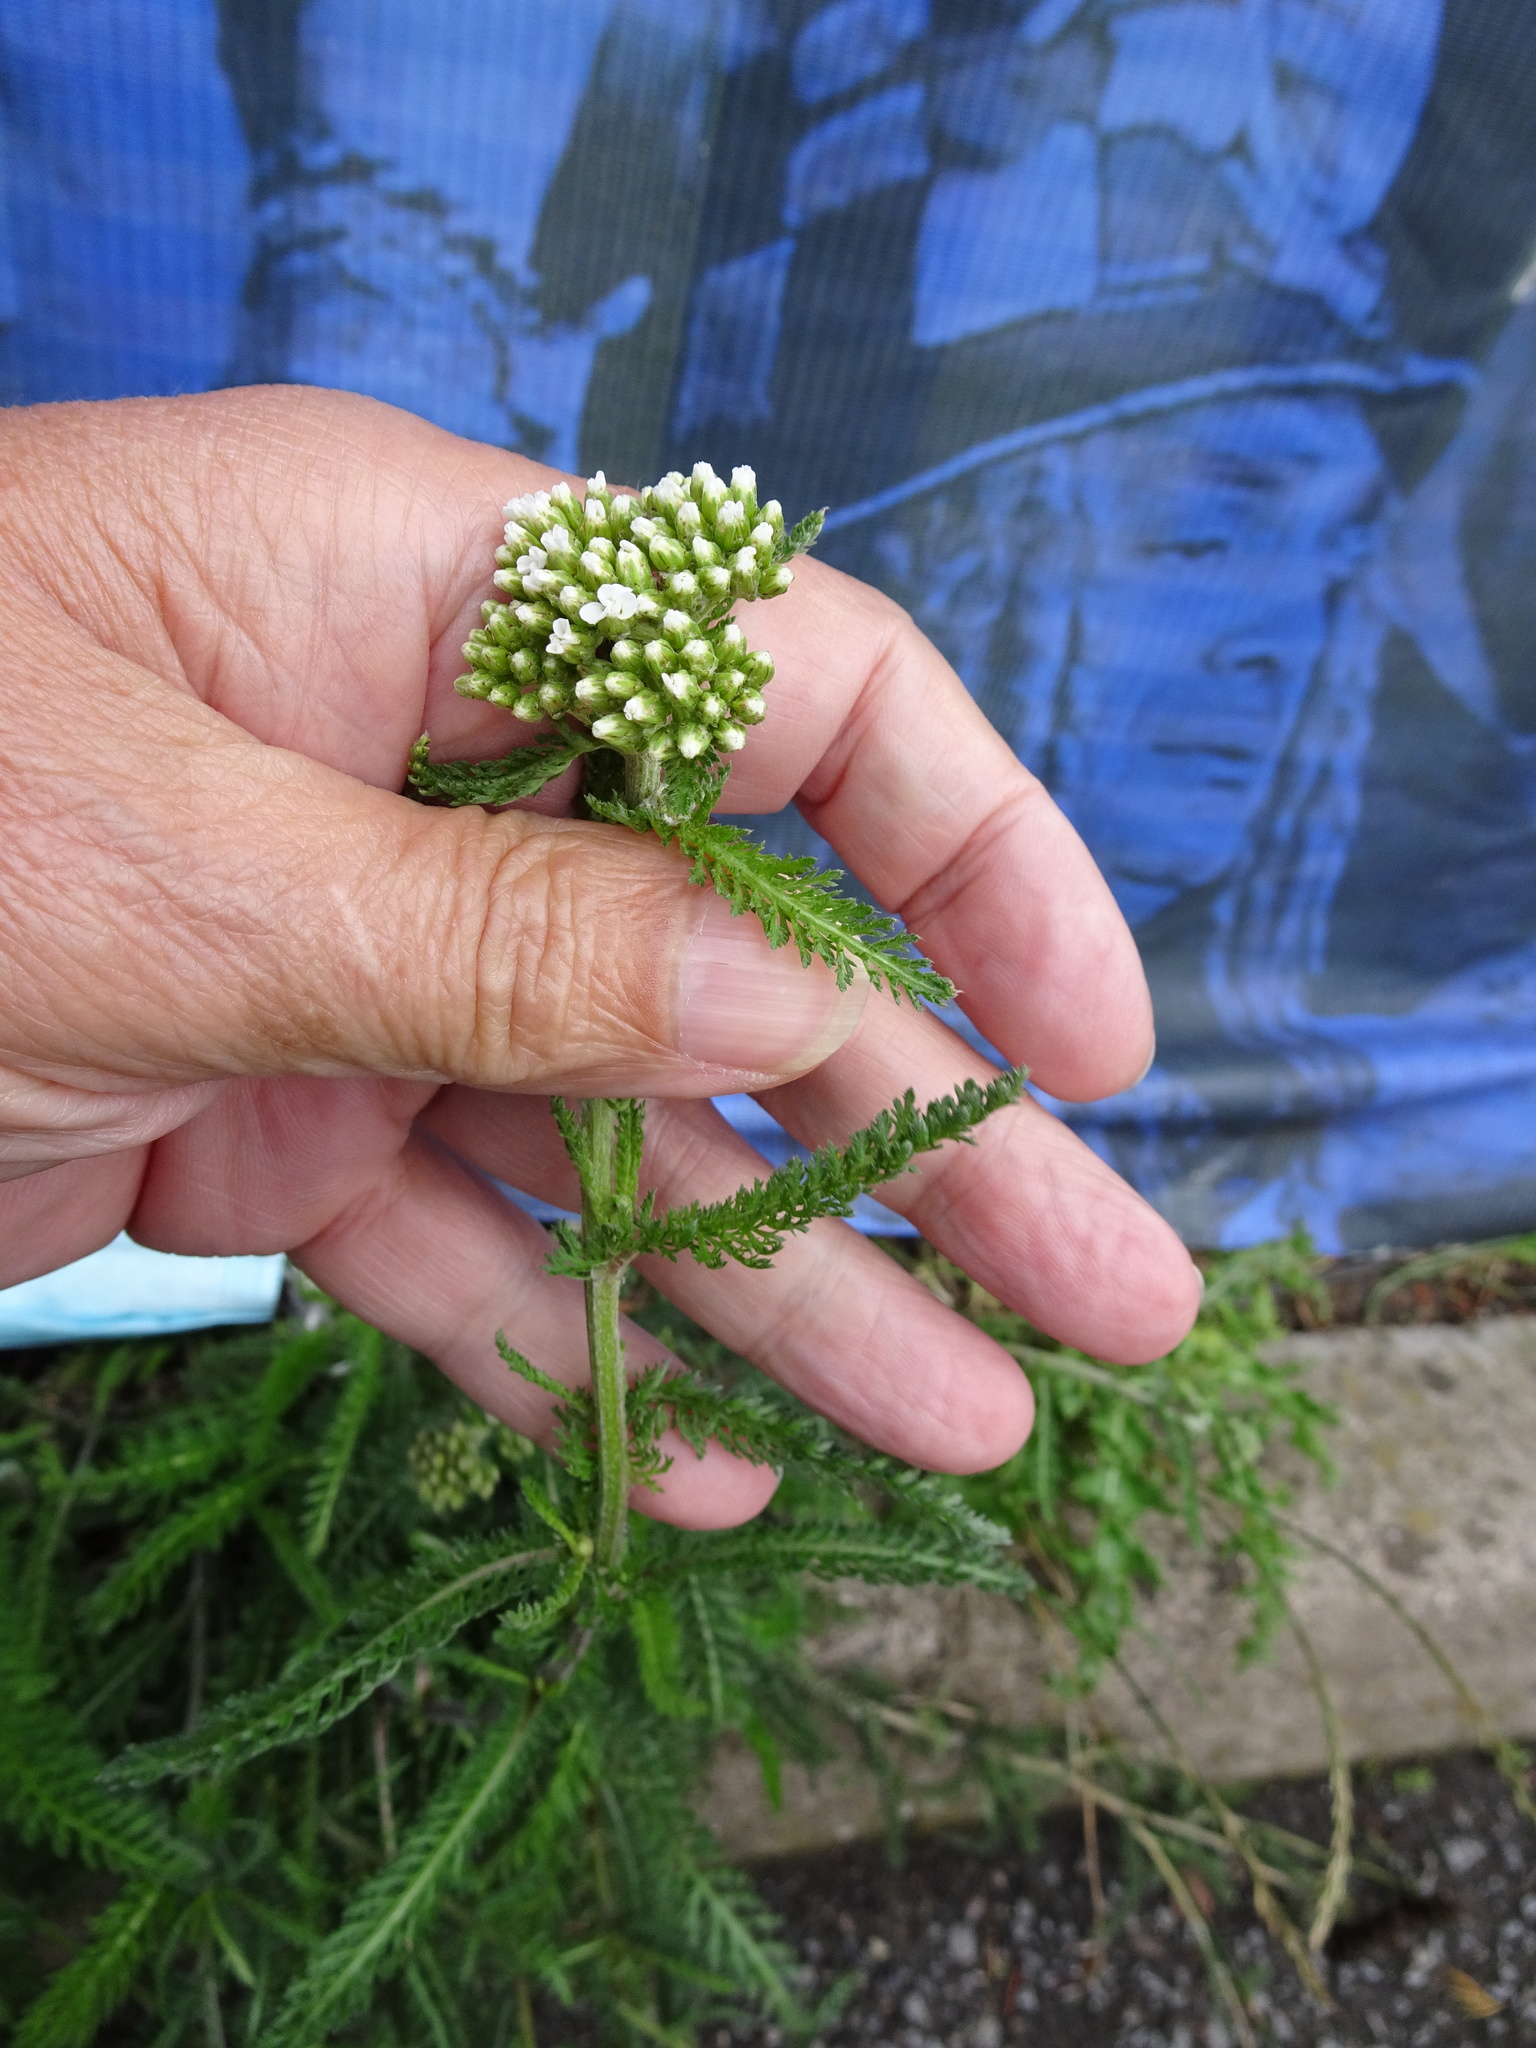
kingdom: Plantae
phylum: Tracheophyta
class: Magnoliopsida
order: Asterales
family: Asteraceae
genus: Achillea
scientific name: Achillea millefolium
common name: Yarrow
